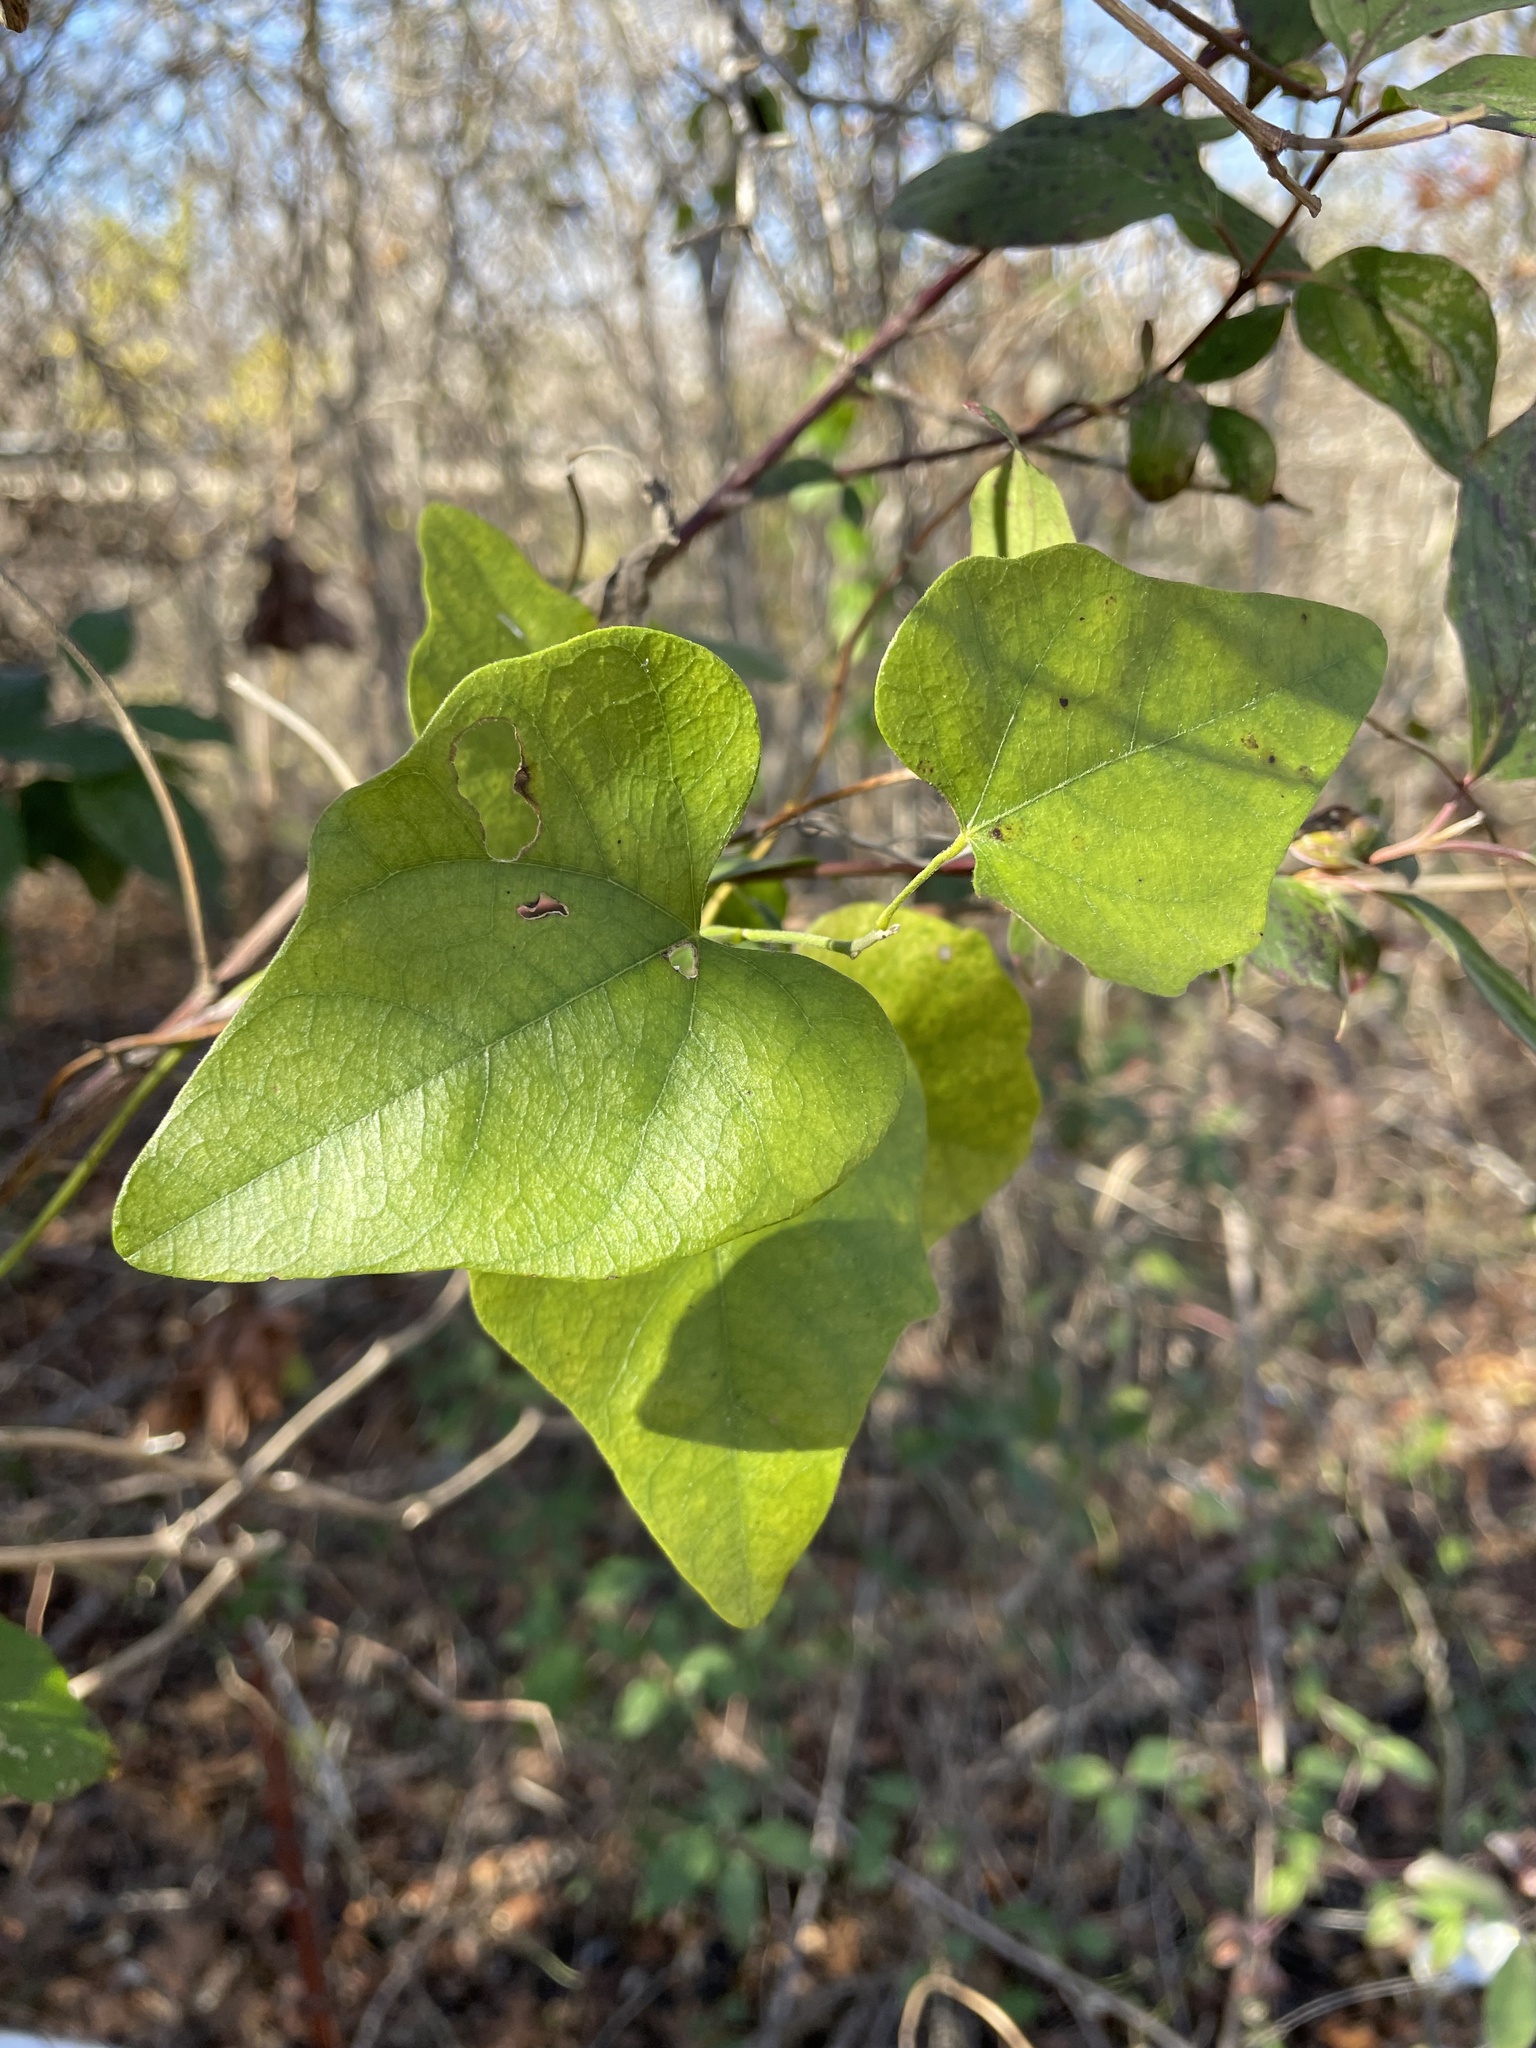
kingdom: Plantae
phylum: Tracheophyta
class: Magnoliopsida
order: Ranunculales
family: Menispermaceae
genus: Cocculus
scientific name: Cocculus carolinus
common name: Carolina moonseed
